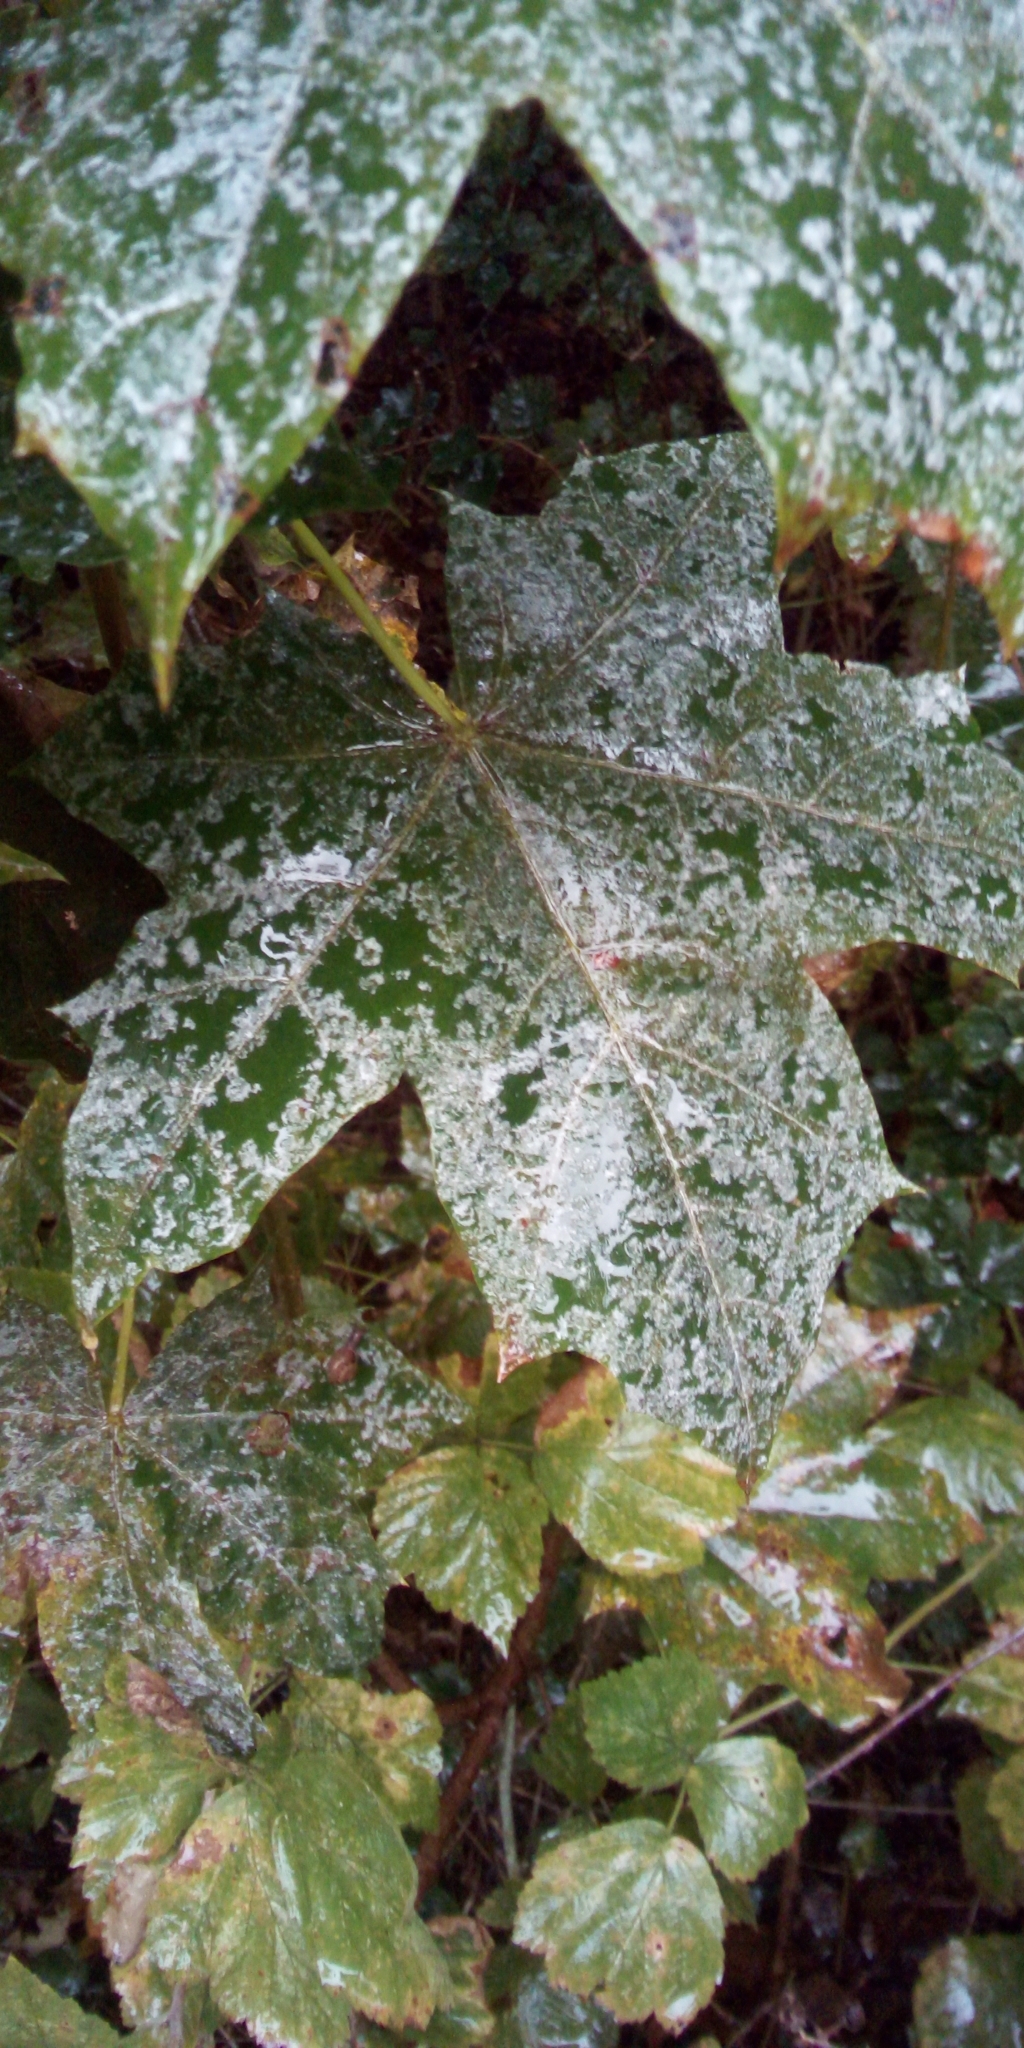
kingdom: Fungi
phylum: Ascomycota
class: Leotiomycetes
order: Helotiales
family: Erysiphaceae
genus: Sawadaea
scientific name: Sawadaea tulasnei
